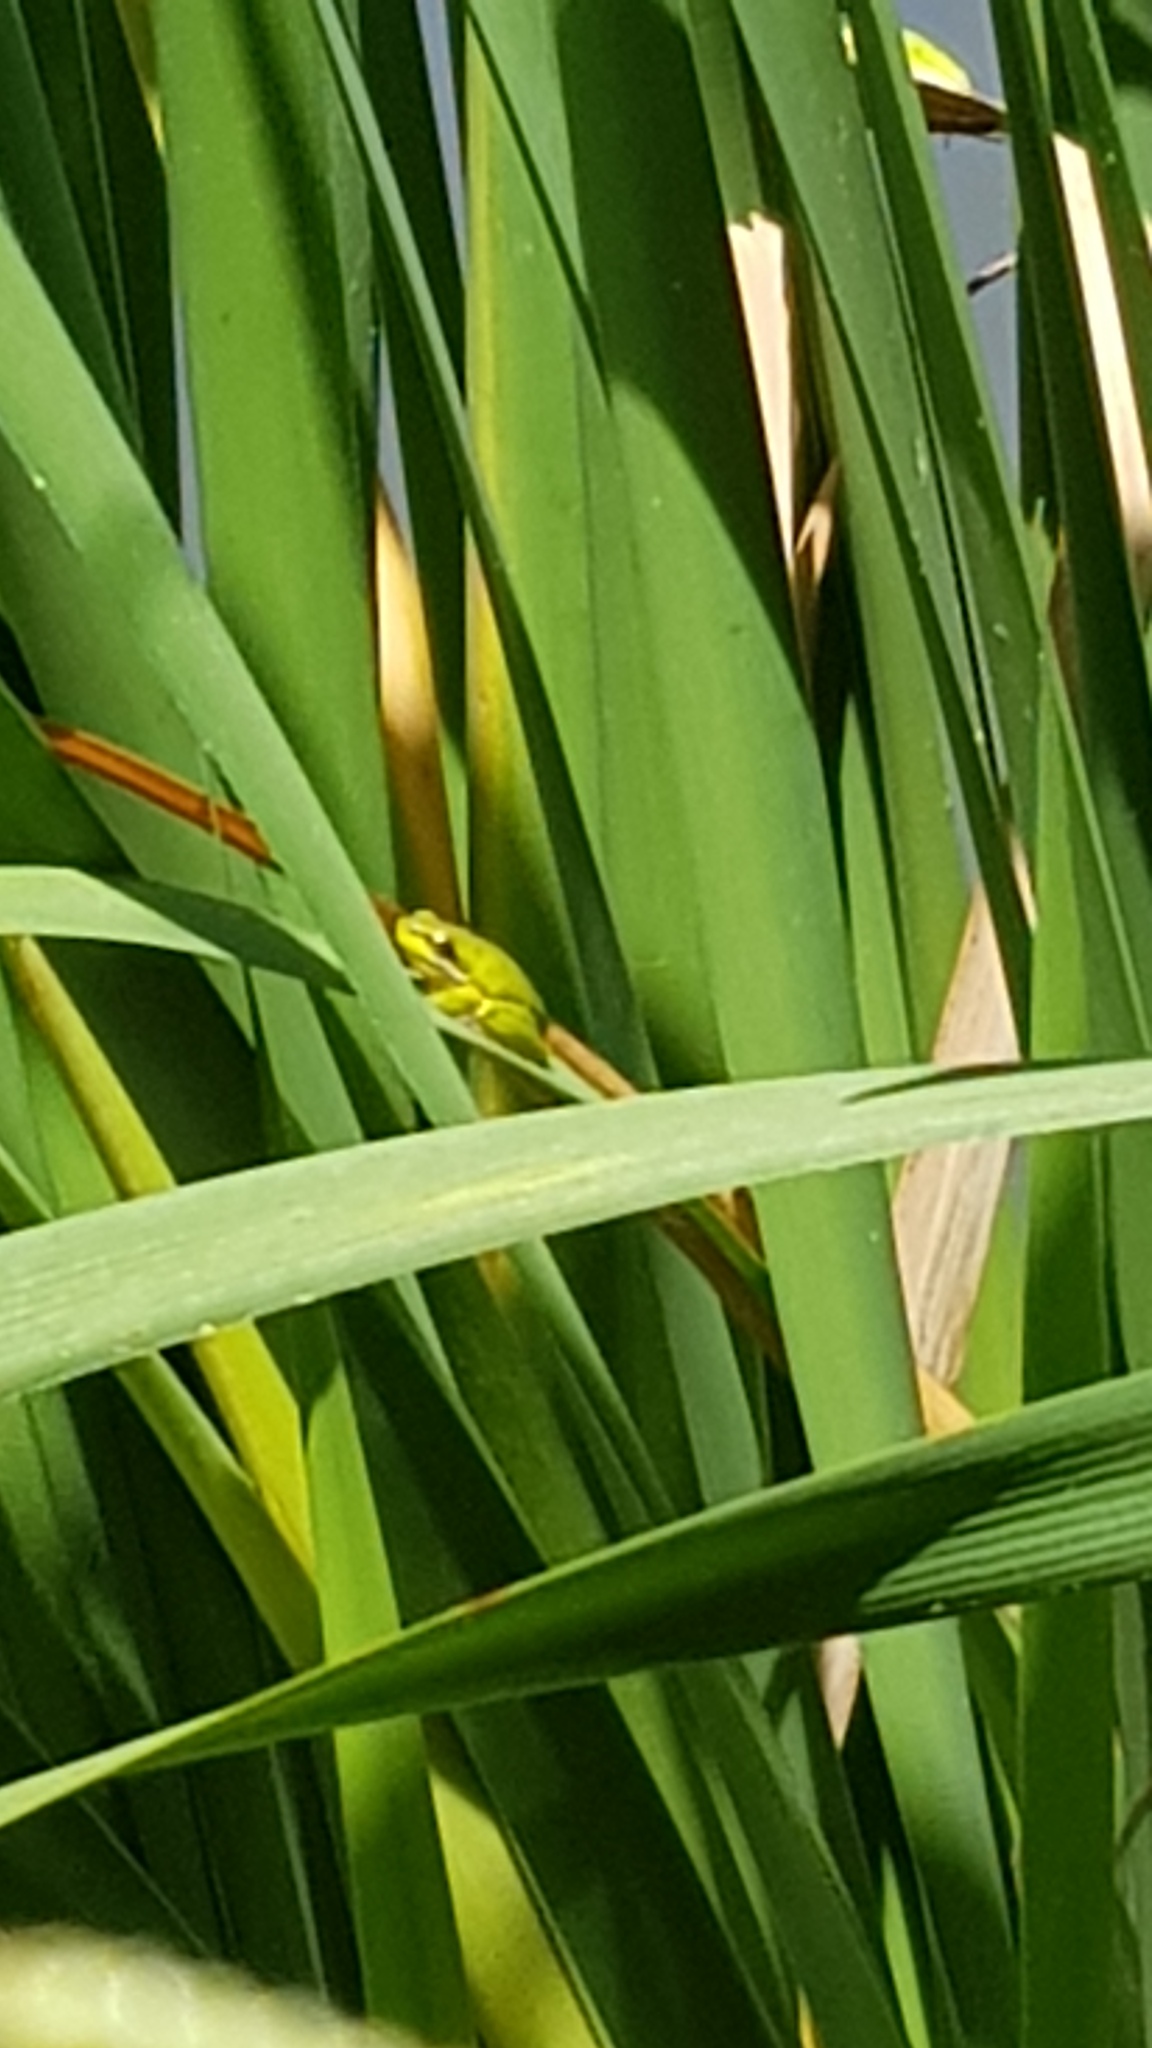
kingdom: Animalia
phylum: Chordata
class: Amphibia
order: Anura
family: Pelodryadidae
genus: Litoria
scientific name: Litoria fallax
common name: Eastern dwarf treefrog
